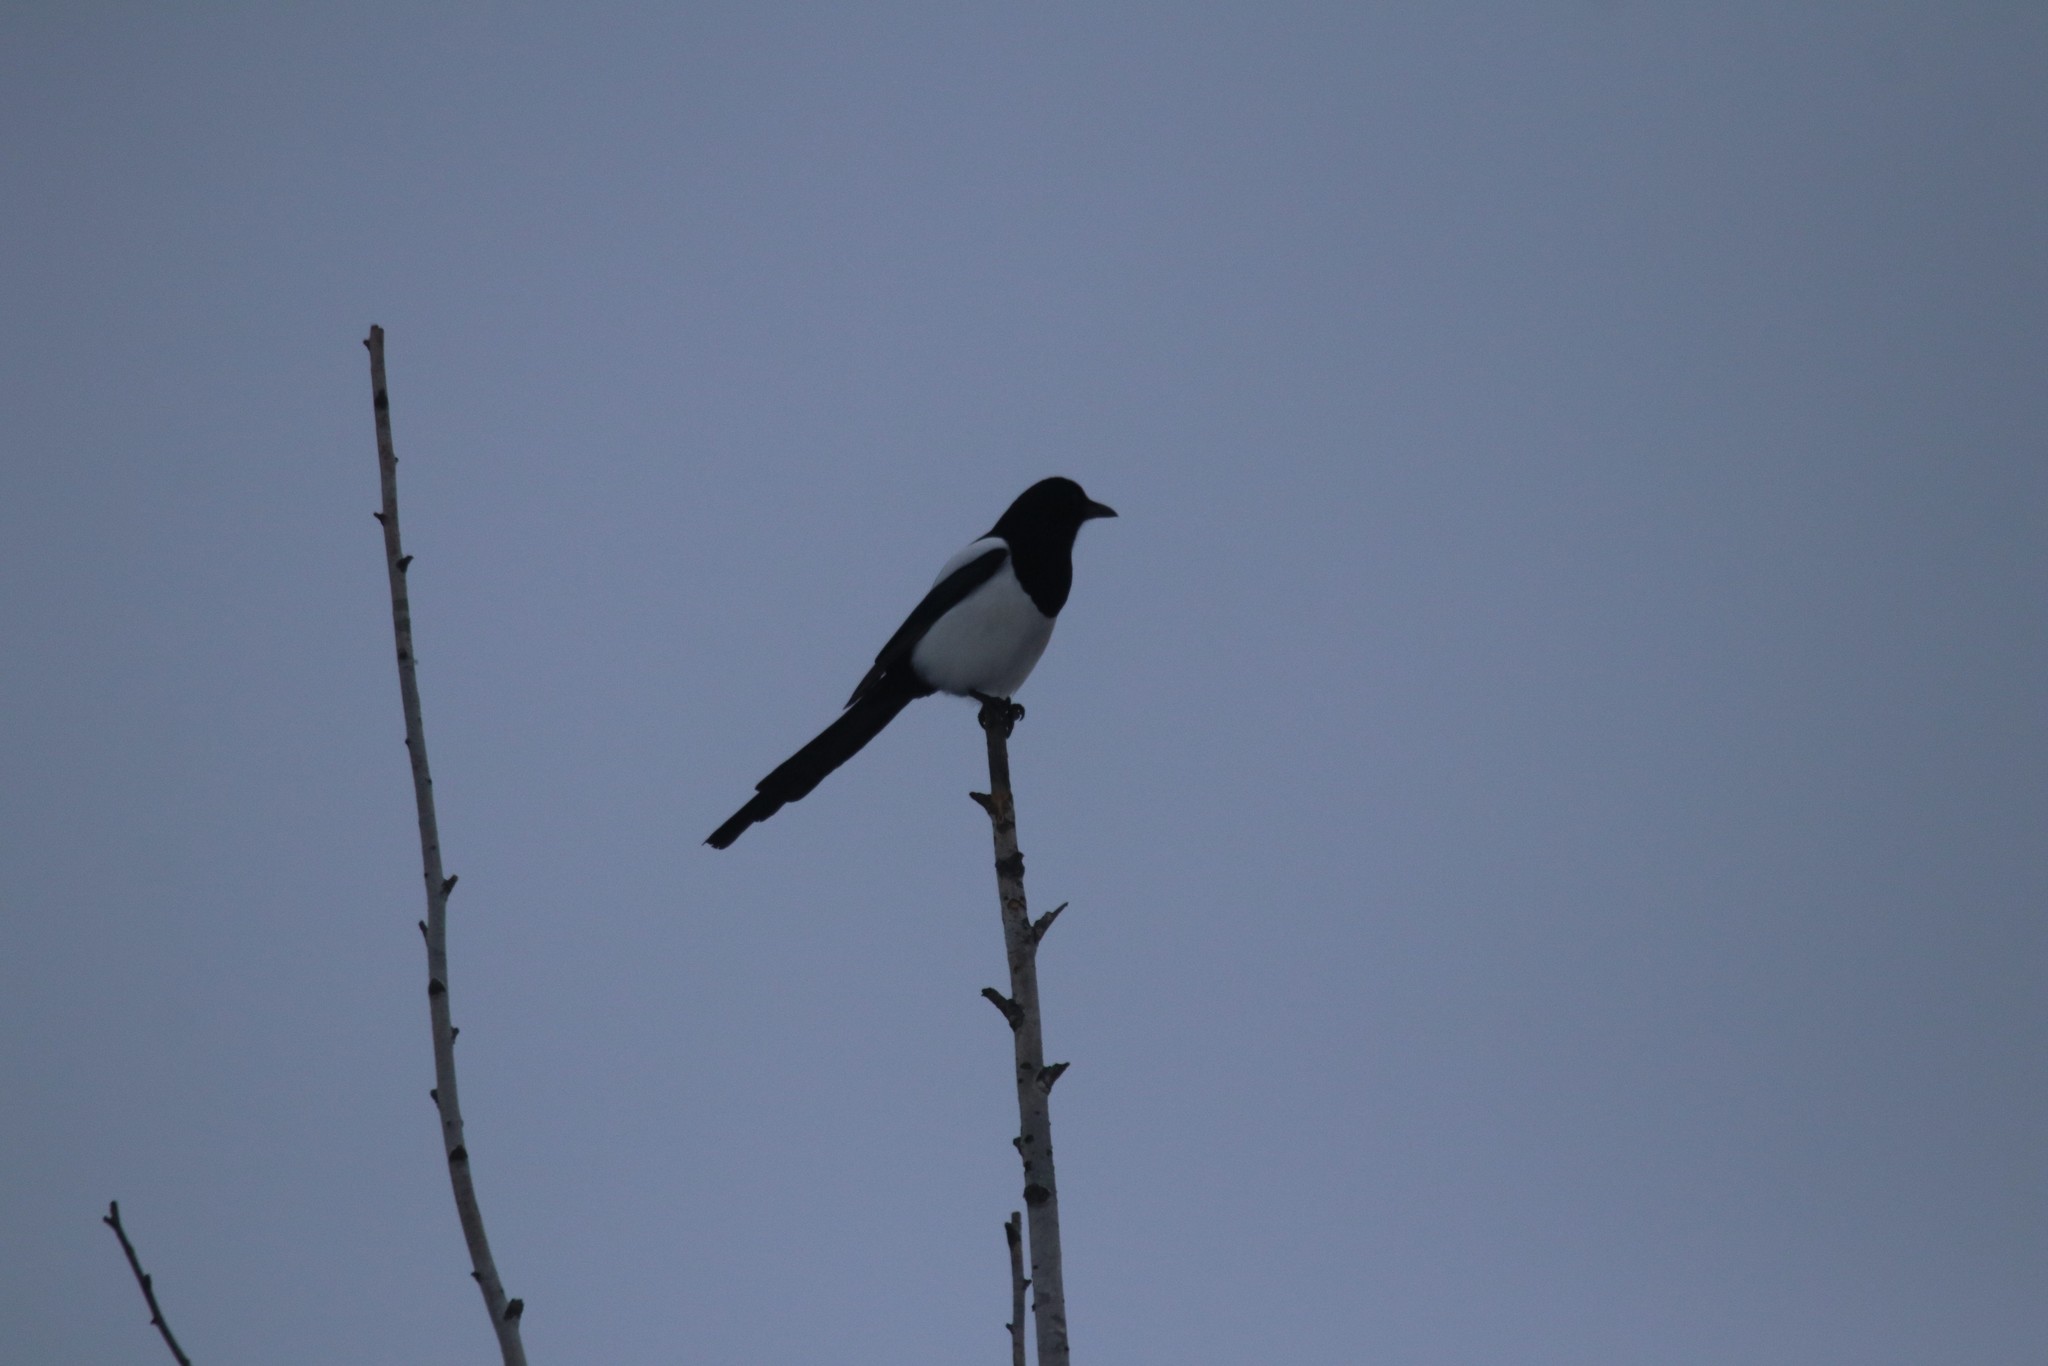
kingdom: Animalia
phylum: Chordata
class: Aves
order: Passeriformes
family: Corvidae
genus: Pica
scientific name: Pica pica
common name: Eurasian magpie
